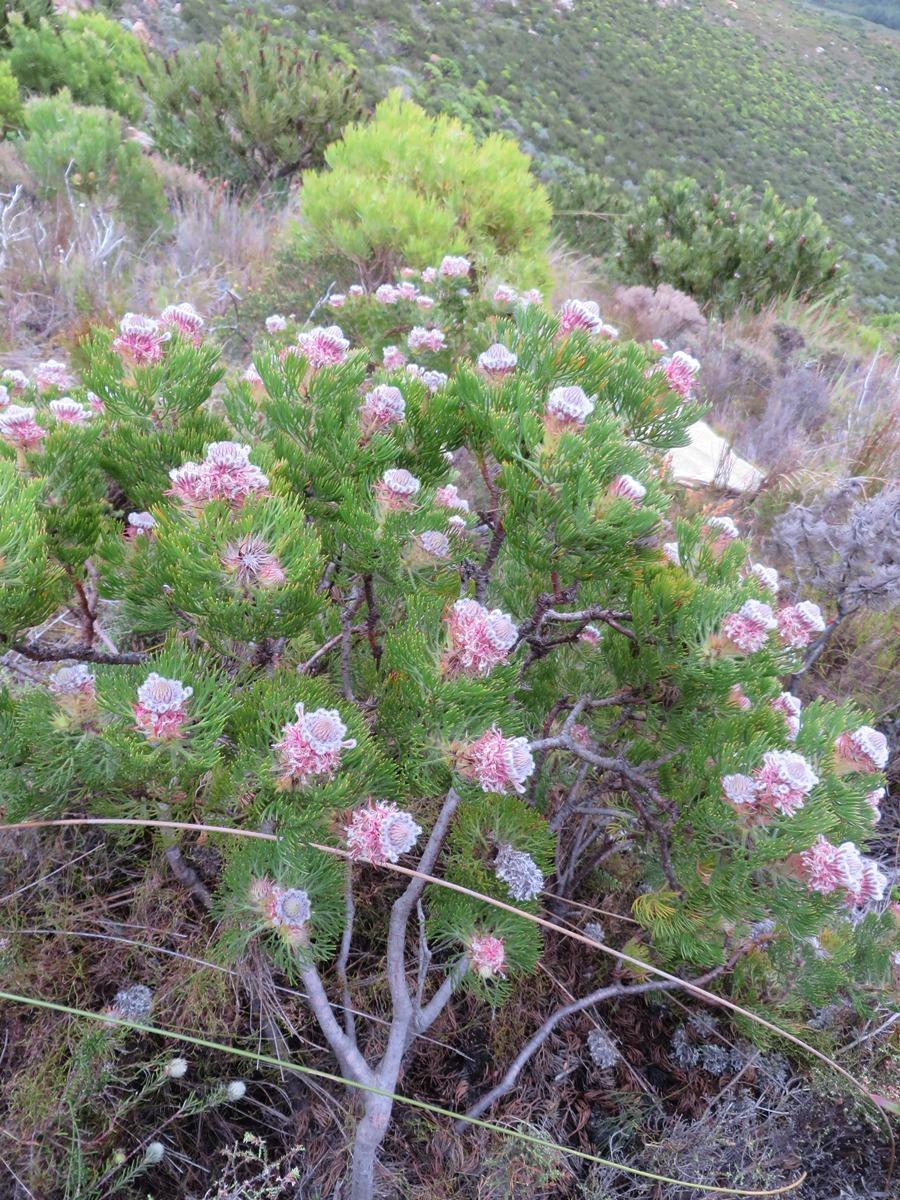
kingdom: Plantae
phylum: Tracheophyta
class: Magnoliopsida
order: Proteales
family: Proteaceae
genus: Serruria
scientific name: Serruria hirsuta
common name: Swartkops spiderhead
